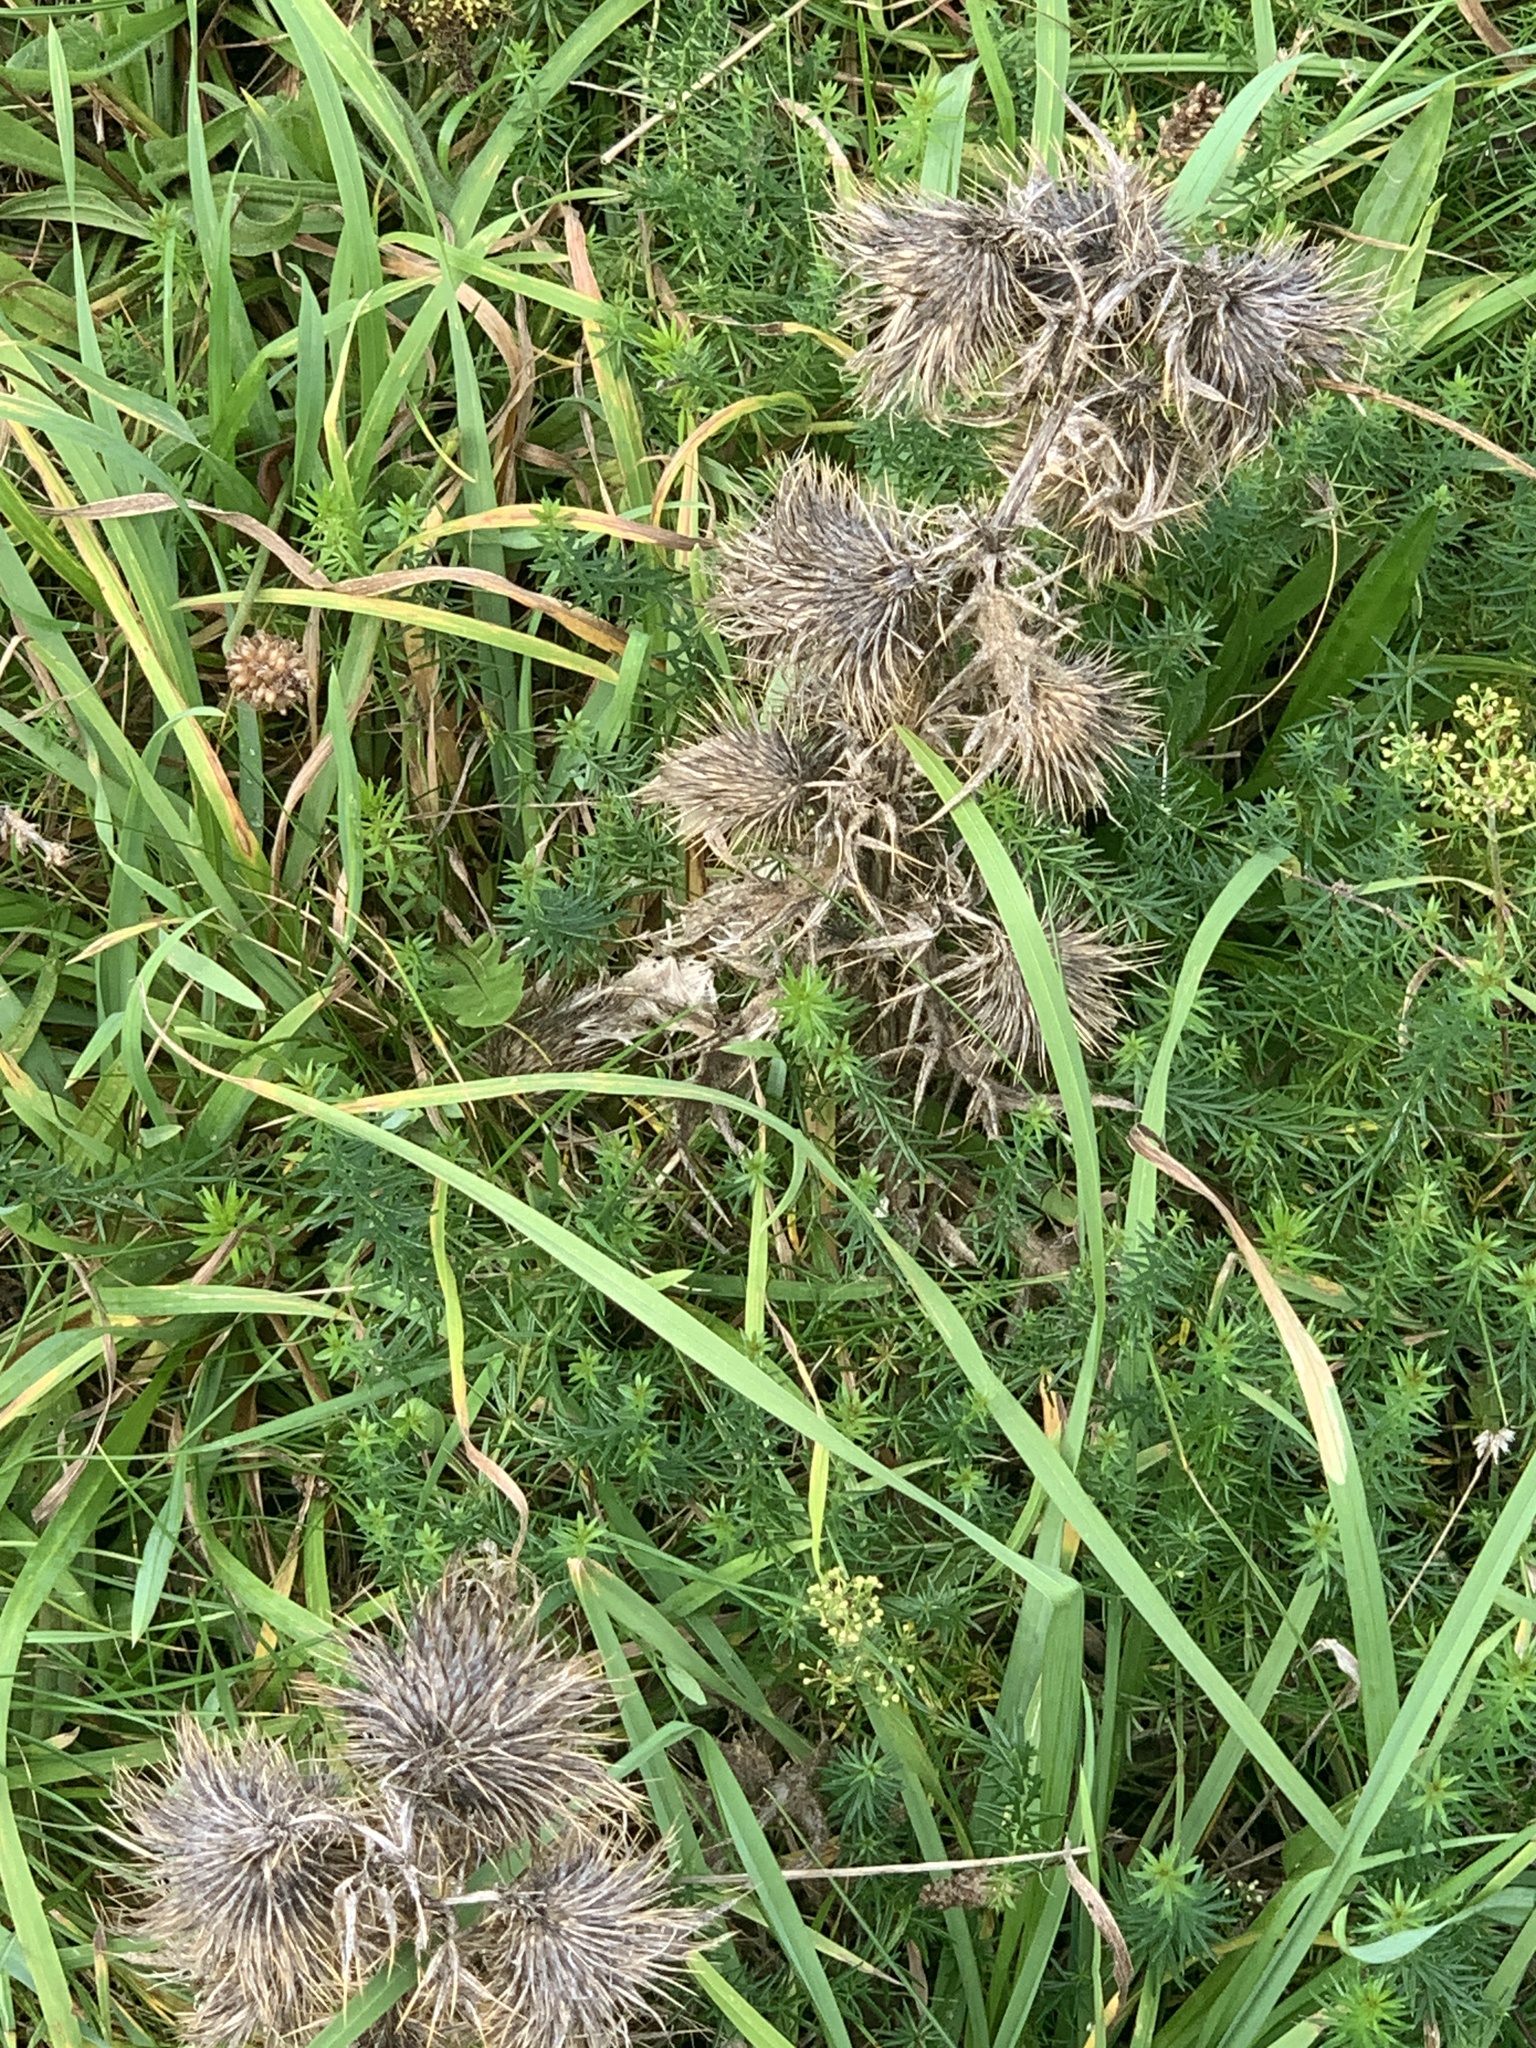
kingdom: Plantae
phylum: Tracheophyta
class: Magnoliopsida
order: Asterales
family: Asteraceae
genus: Cirsium
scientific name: Cirsium vulgare
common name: Bull thistle
